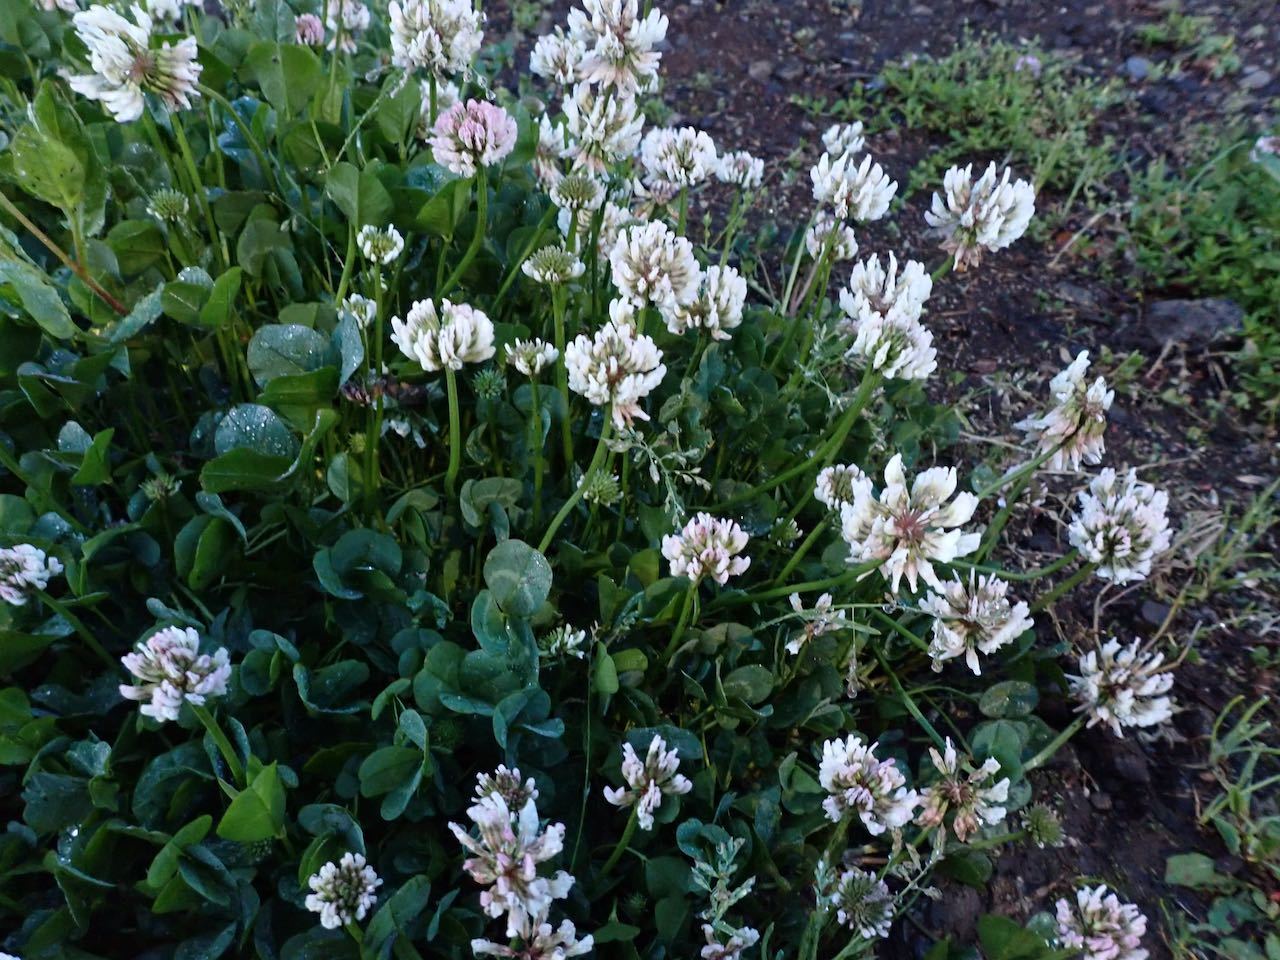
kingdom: Plantae
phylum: Tracheophyta
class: Magnoliopsida
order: Fabales
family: Fabaceae
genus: Trifolium
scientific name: Trifolium repens
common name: White clover
